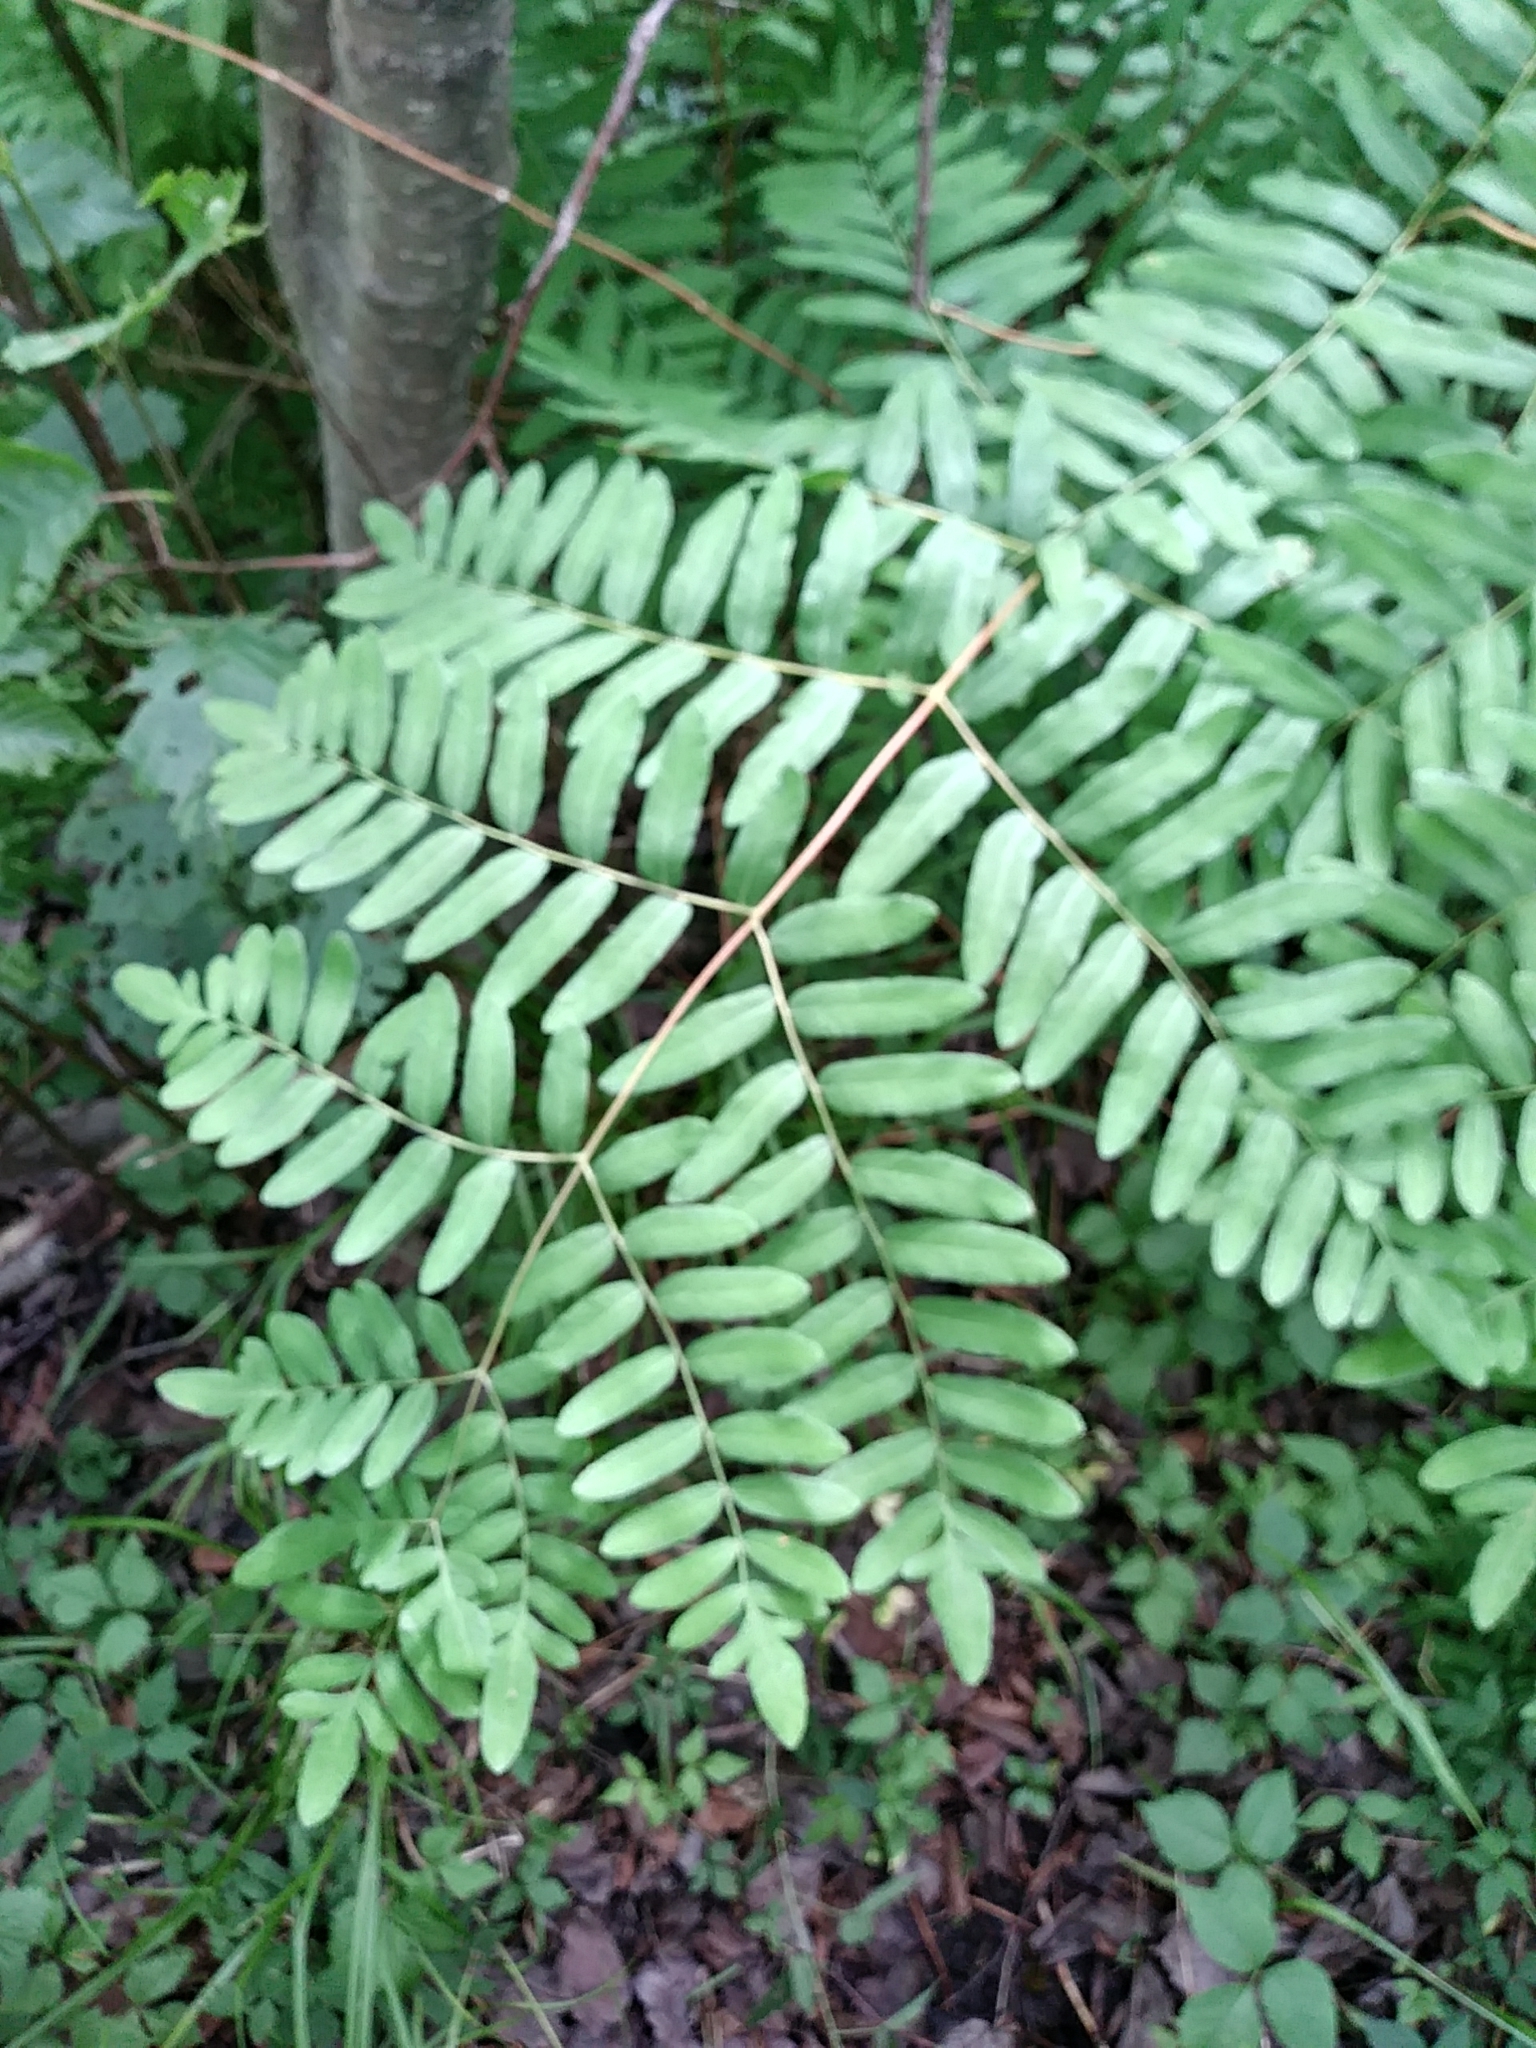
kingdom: Plantae
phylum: Tracheophyta
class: Polypodiopsida
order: Osmundales
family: Osmundaceae
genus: Osmunda
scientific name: Osmunda spectabilis
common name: American royal fern
